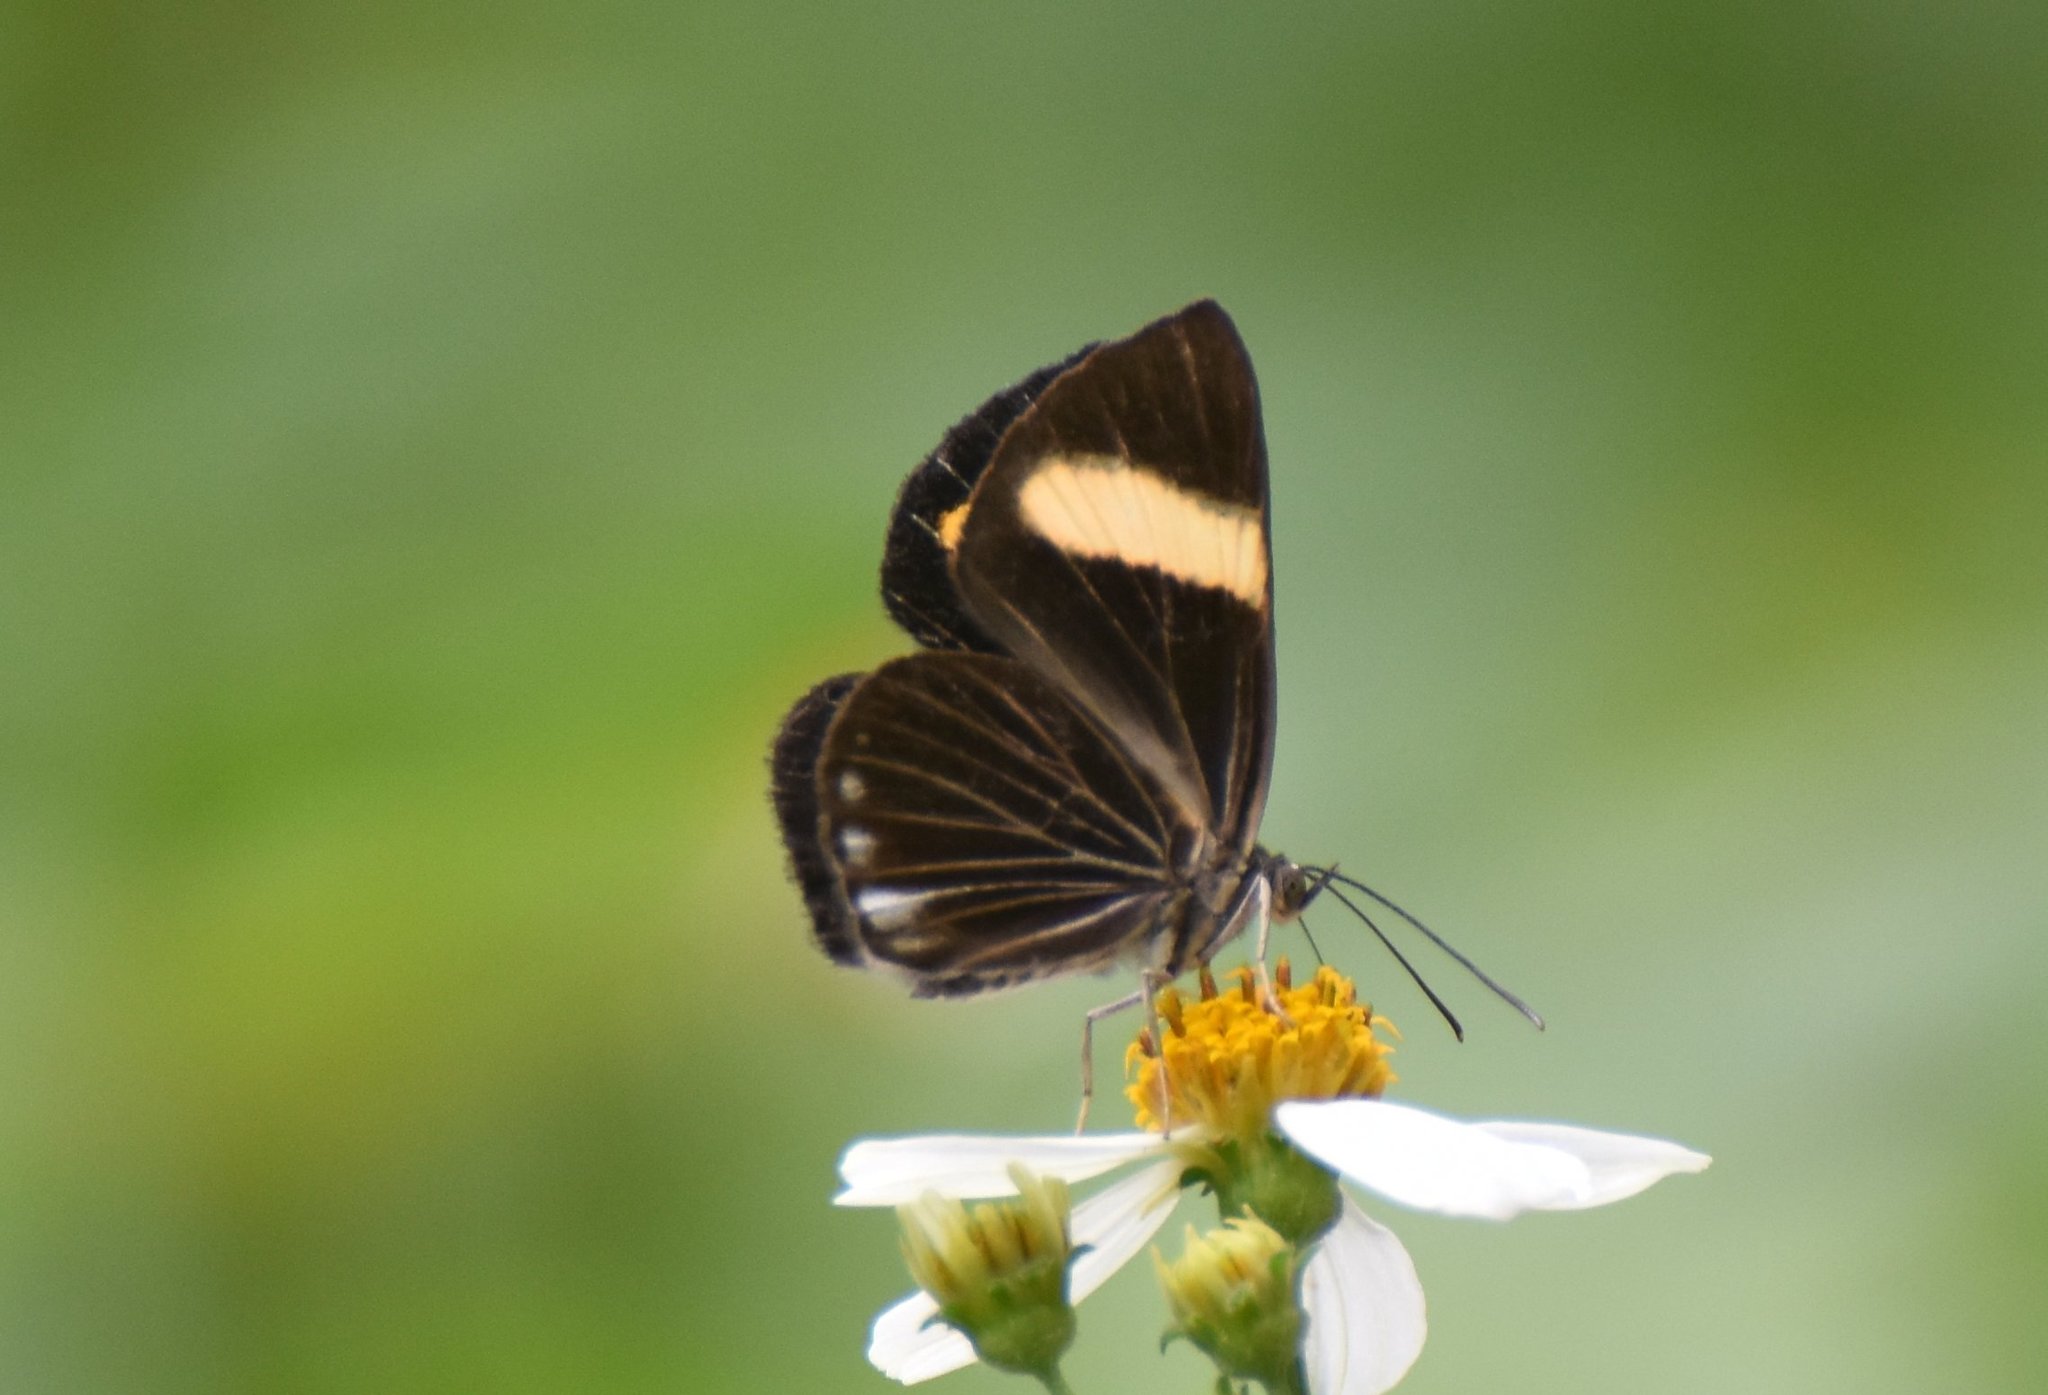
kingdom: Animalia
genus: Setabis
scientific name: Setabis lagus
